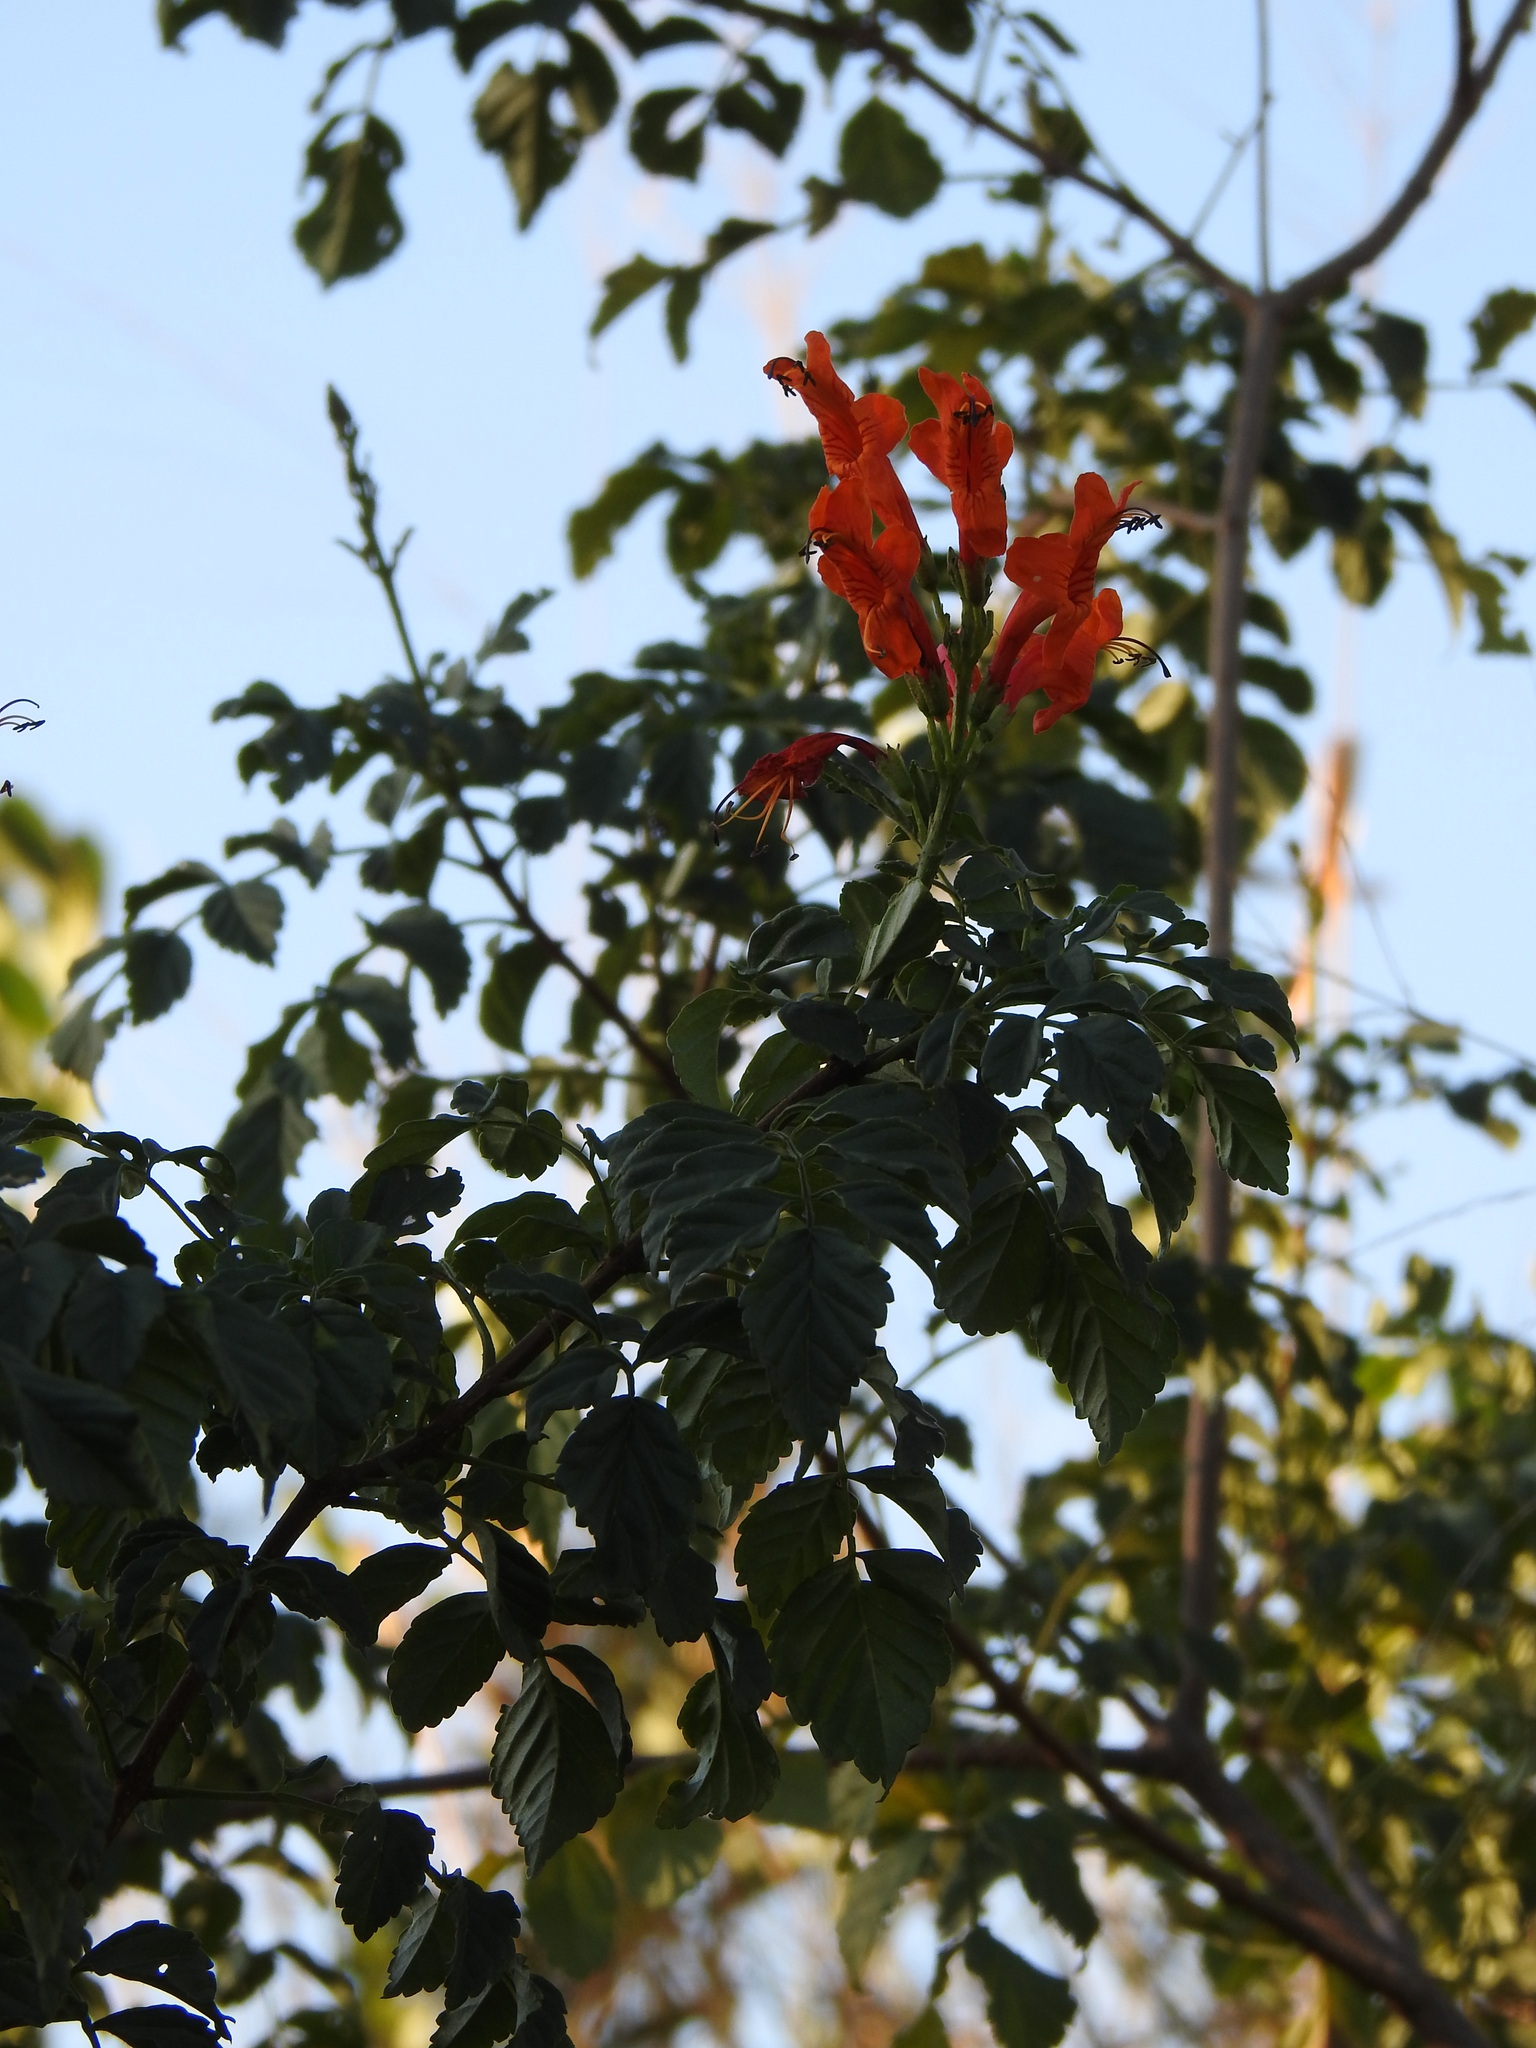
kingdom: Plantae
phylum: Tracheophyta
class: Magnoliopsida
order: Lamiales
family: Bignoniaceae
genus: Tecomaria
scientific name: Tecomaria capensis
